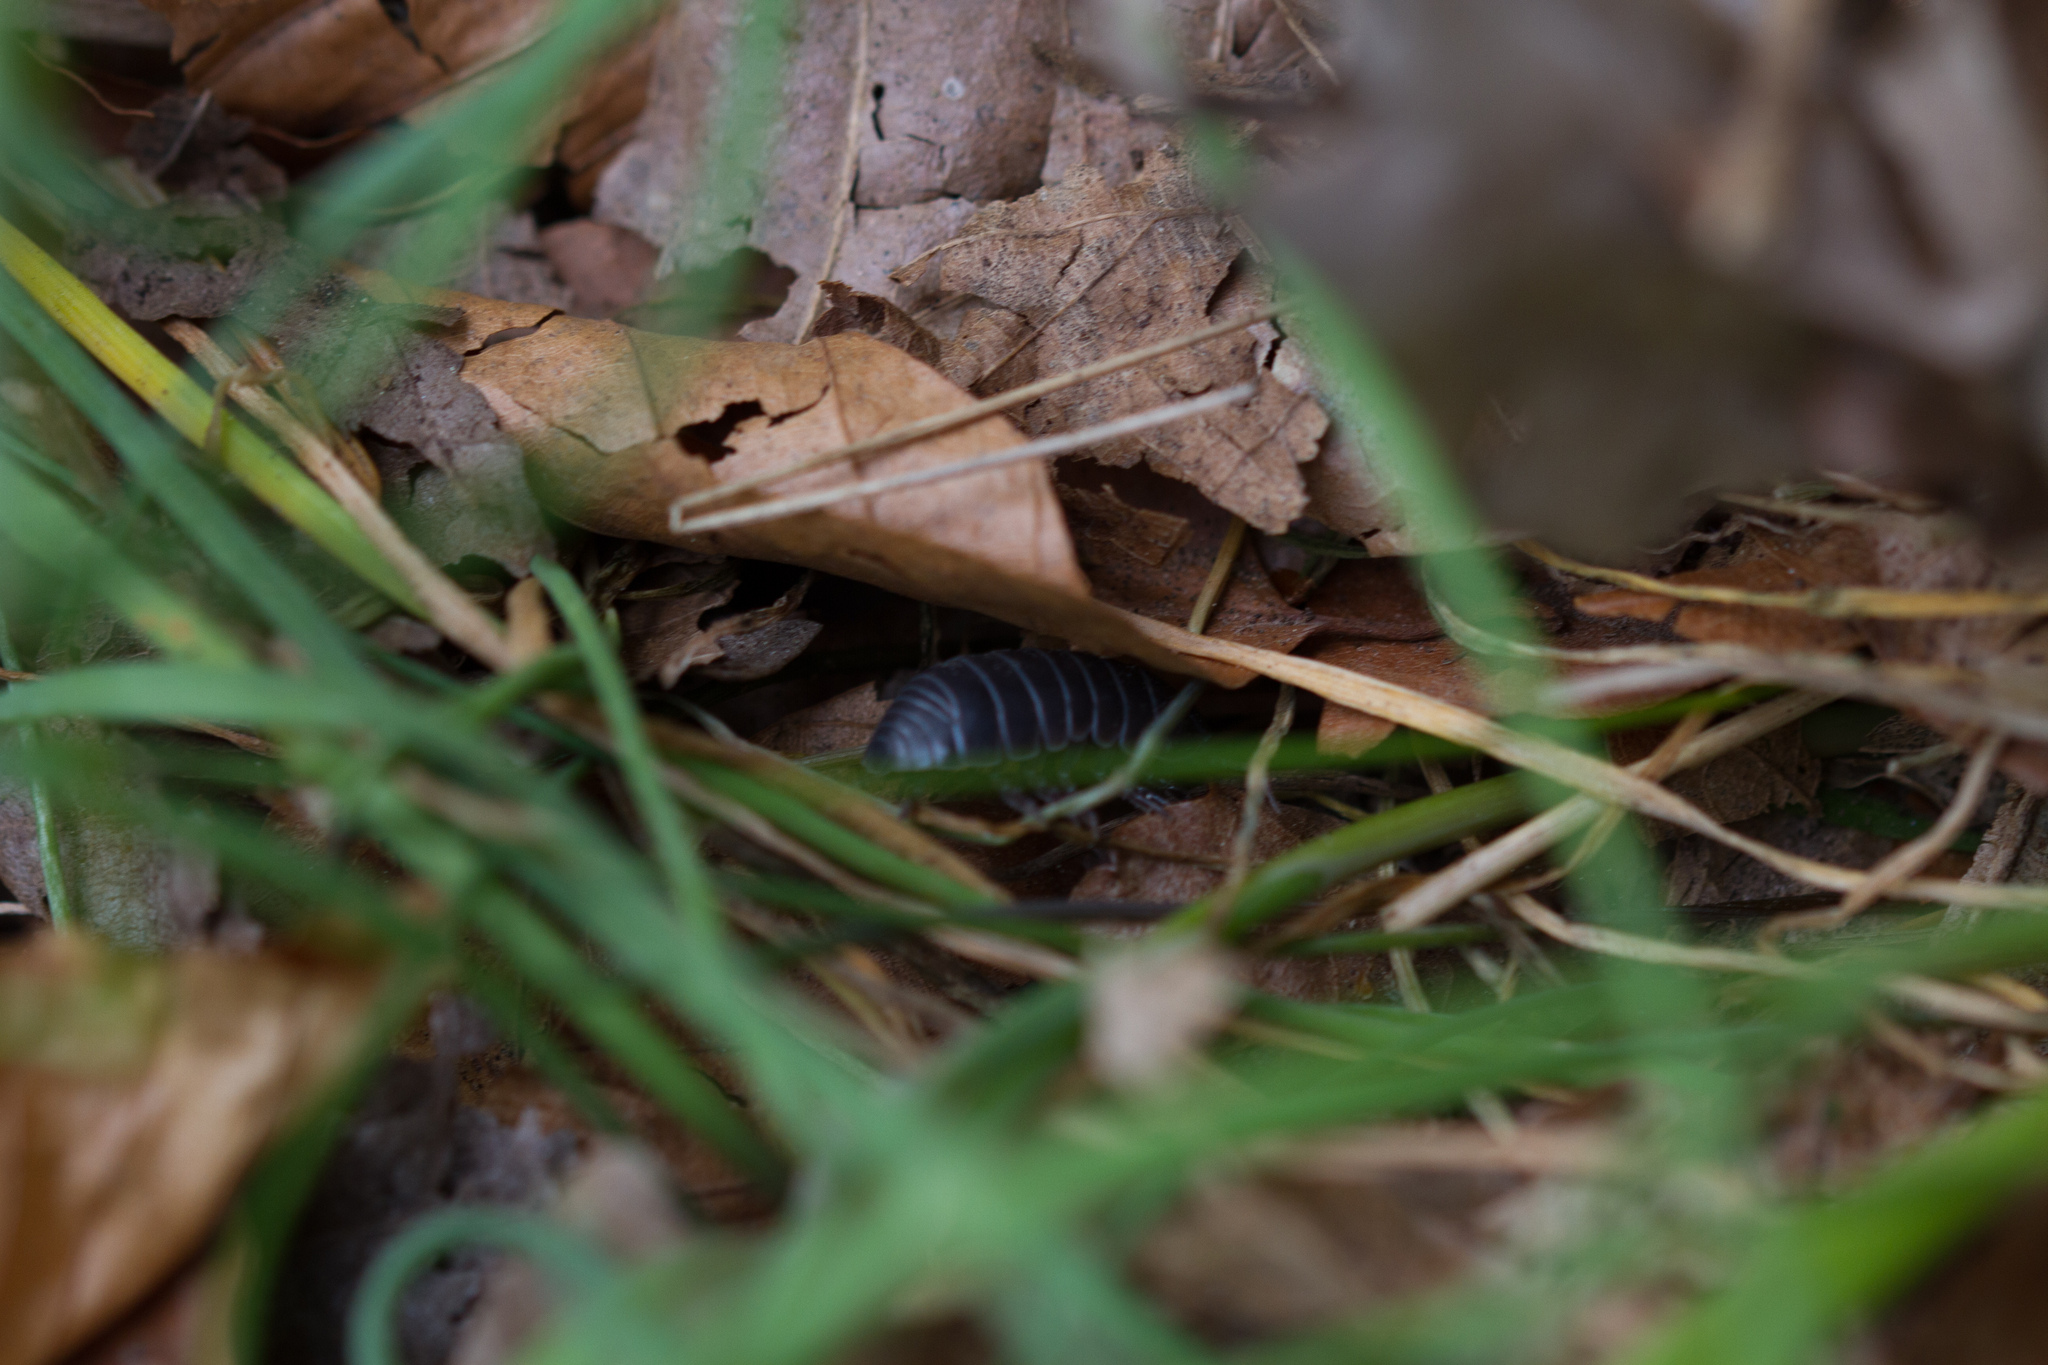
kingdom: Animalia
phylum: Arthropoda
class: Malacostraca
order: Isopoda
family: Armadillidiidae
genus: Armadillidium
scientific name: Armadillidium vulgare
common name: Common pill woodlouse
